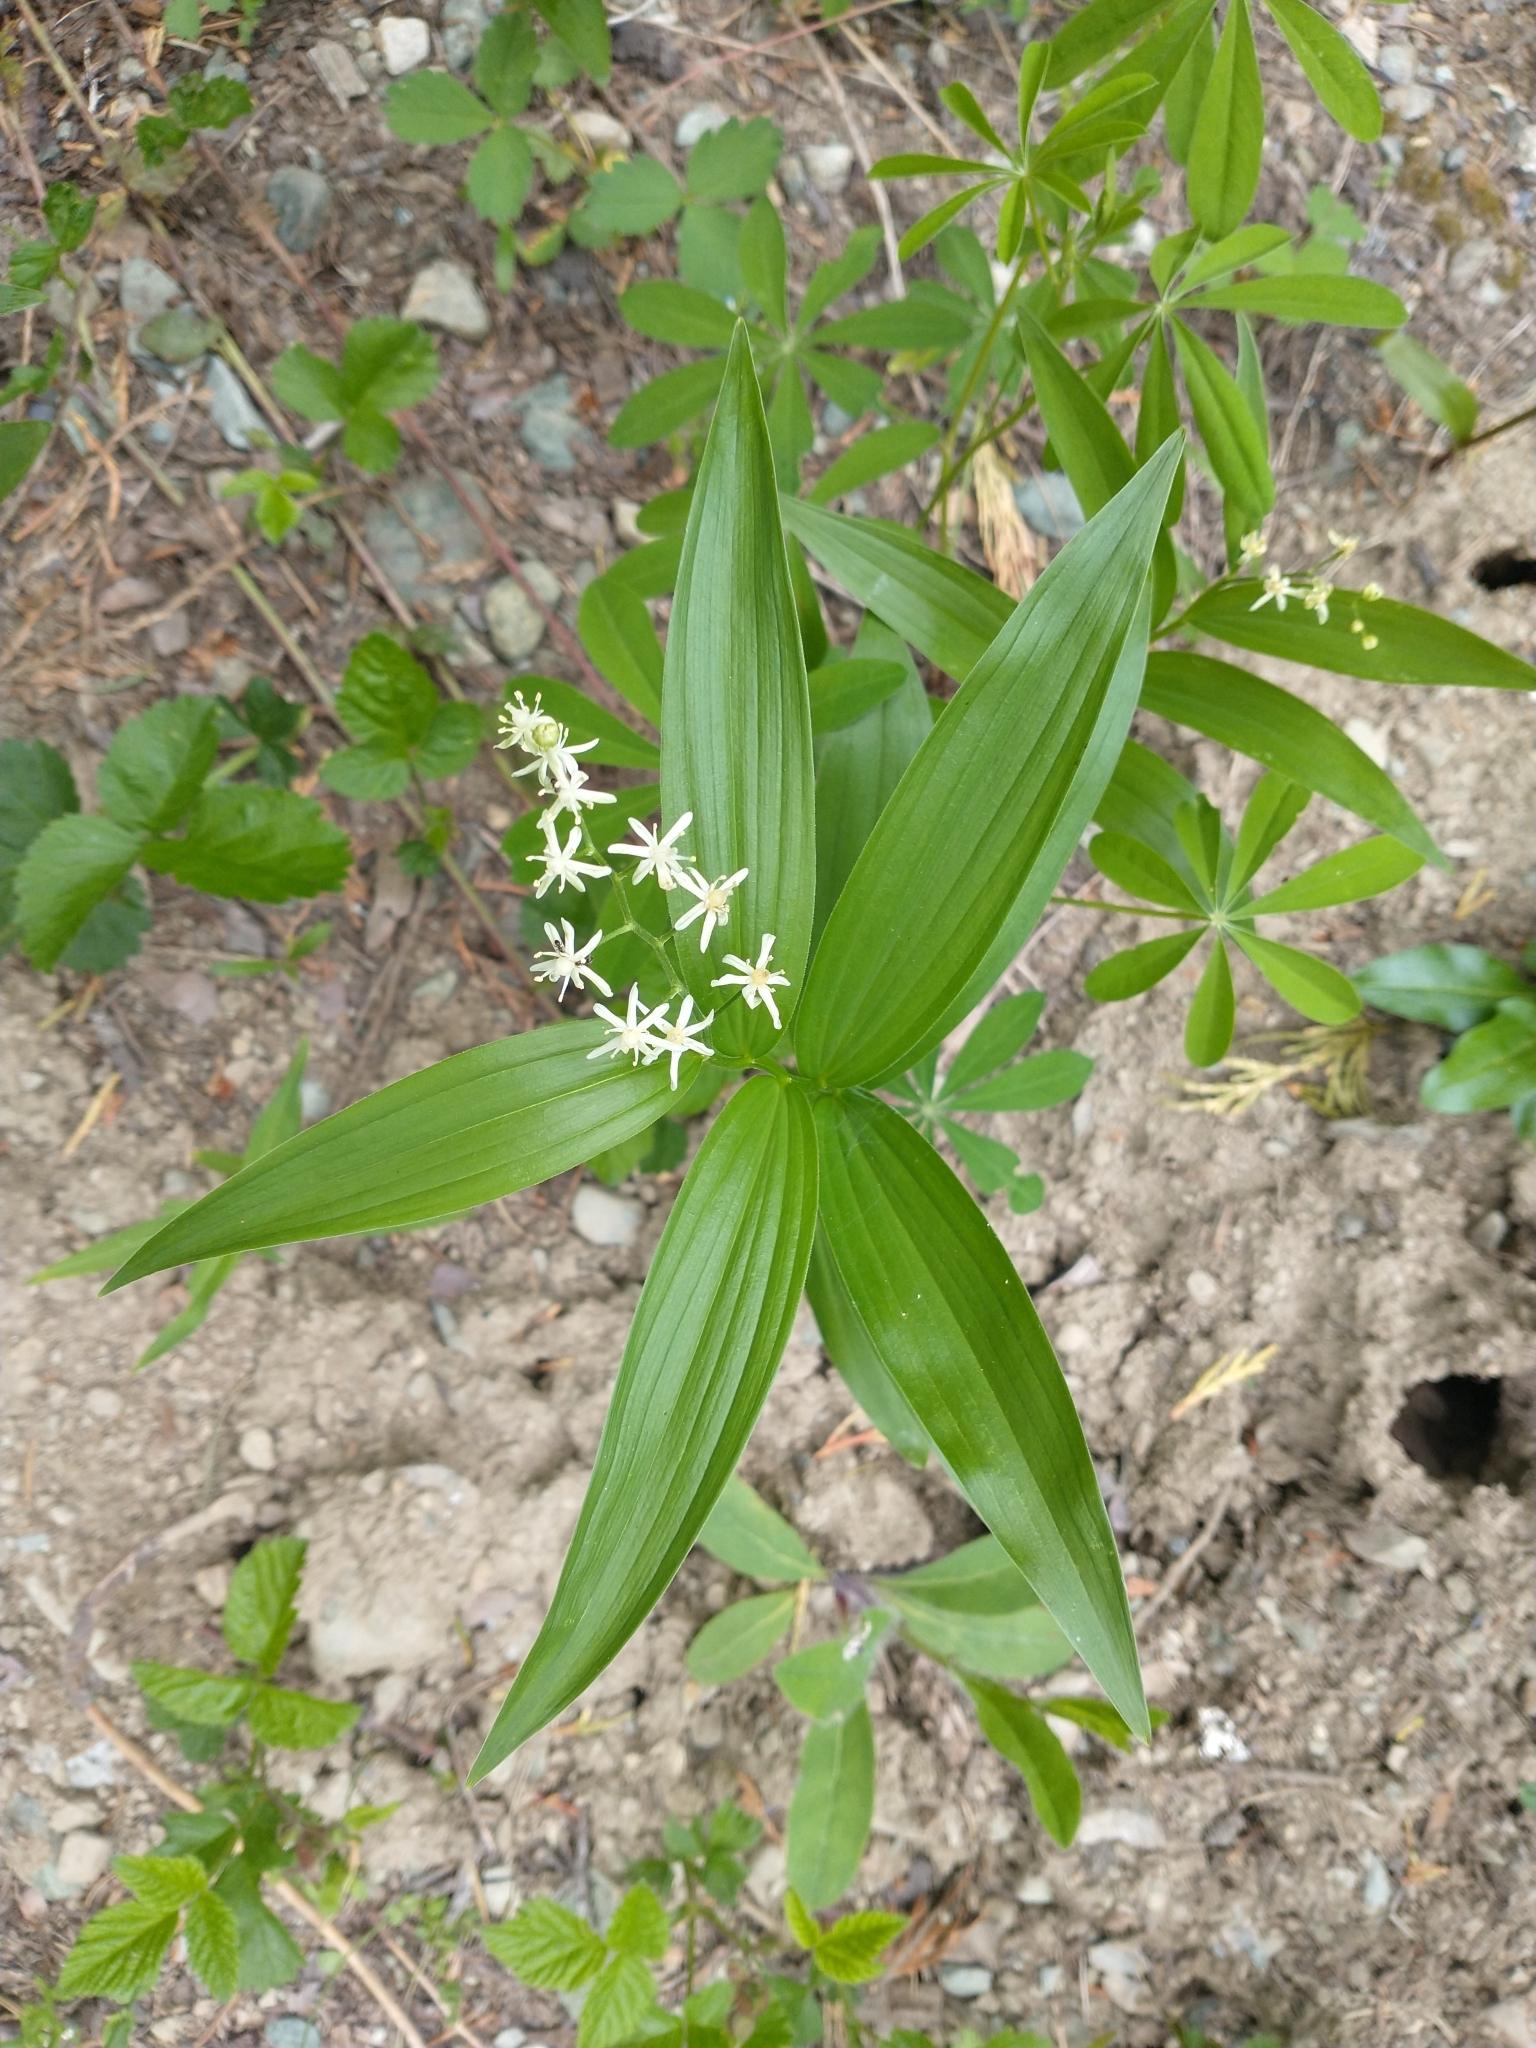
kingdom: Plantae
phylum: Tracheophyta
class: Liliopsida
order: Asparagales
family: Asparagaceae
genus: Maianthemum
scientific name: Maianthemum stellatum
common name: Little false solomon's seal
